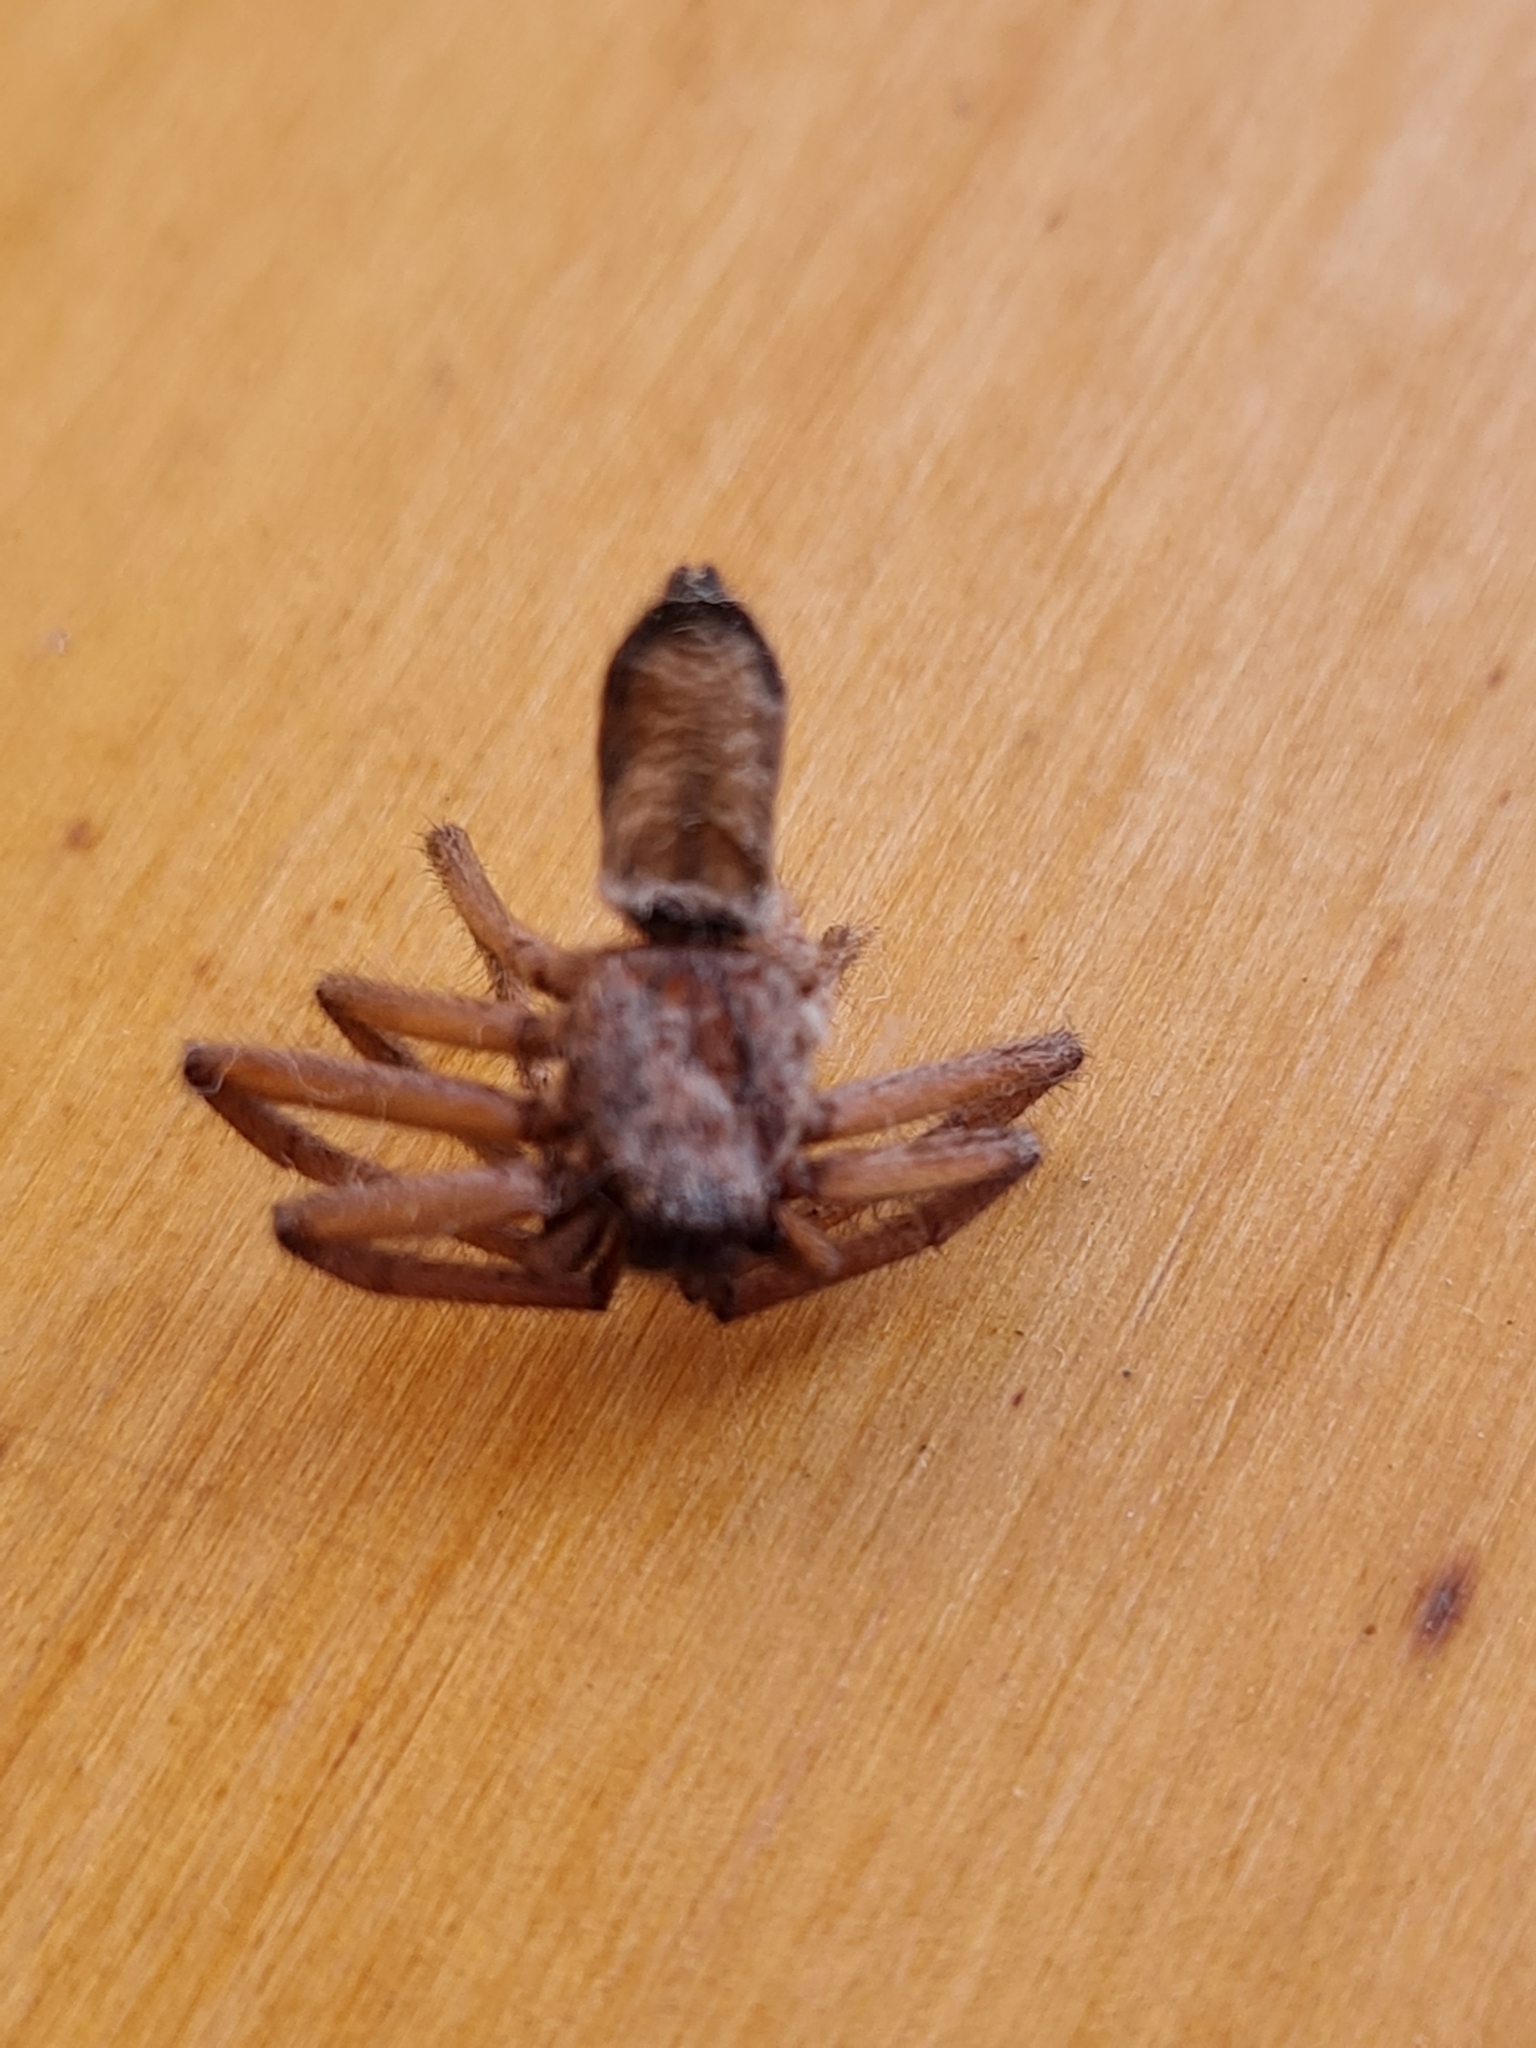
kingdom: Animalia
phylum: Arthropoda
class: Arachnida
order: Araneae
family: Trochanteriidae
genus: Hemicloea
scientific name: Hemicloea rogenhoferi
